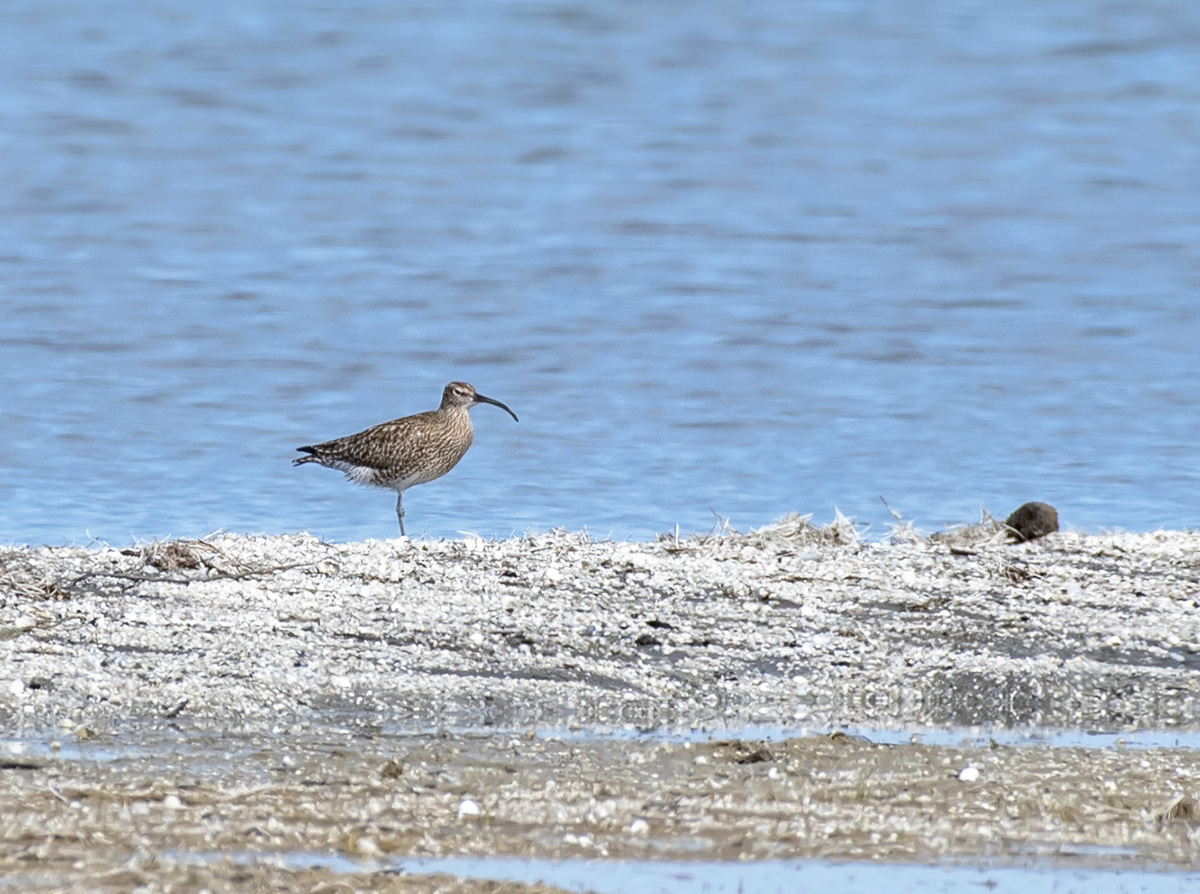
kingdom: Animalia
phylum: Chordata
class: Aves
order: Charadriiformes
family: Scolopacidae
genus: Numenius
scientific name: Numenius phaeopus
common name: Whimbrel
